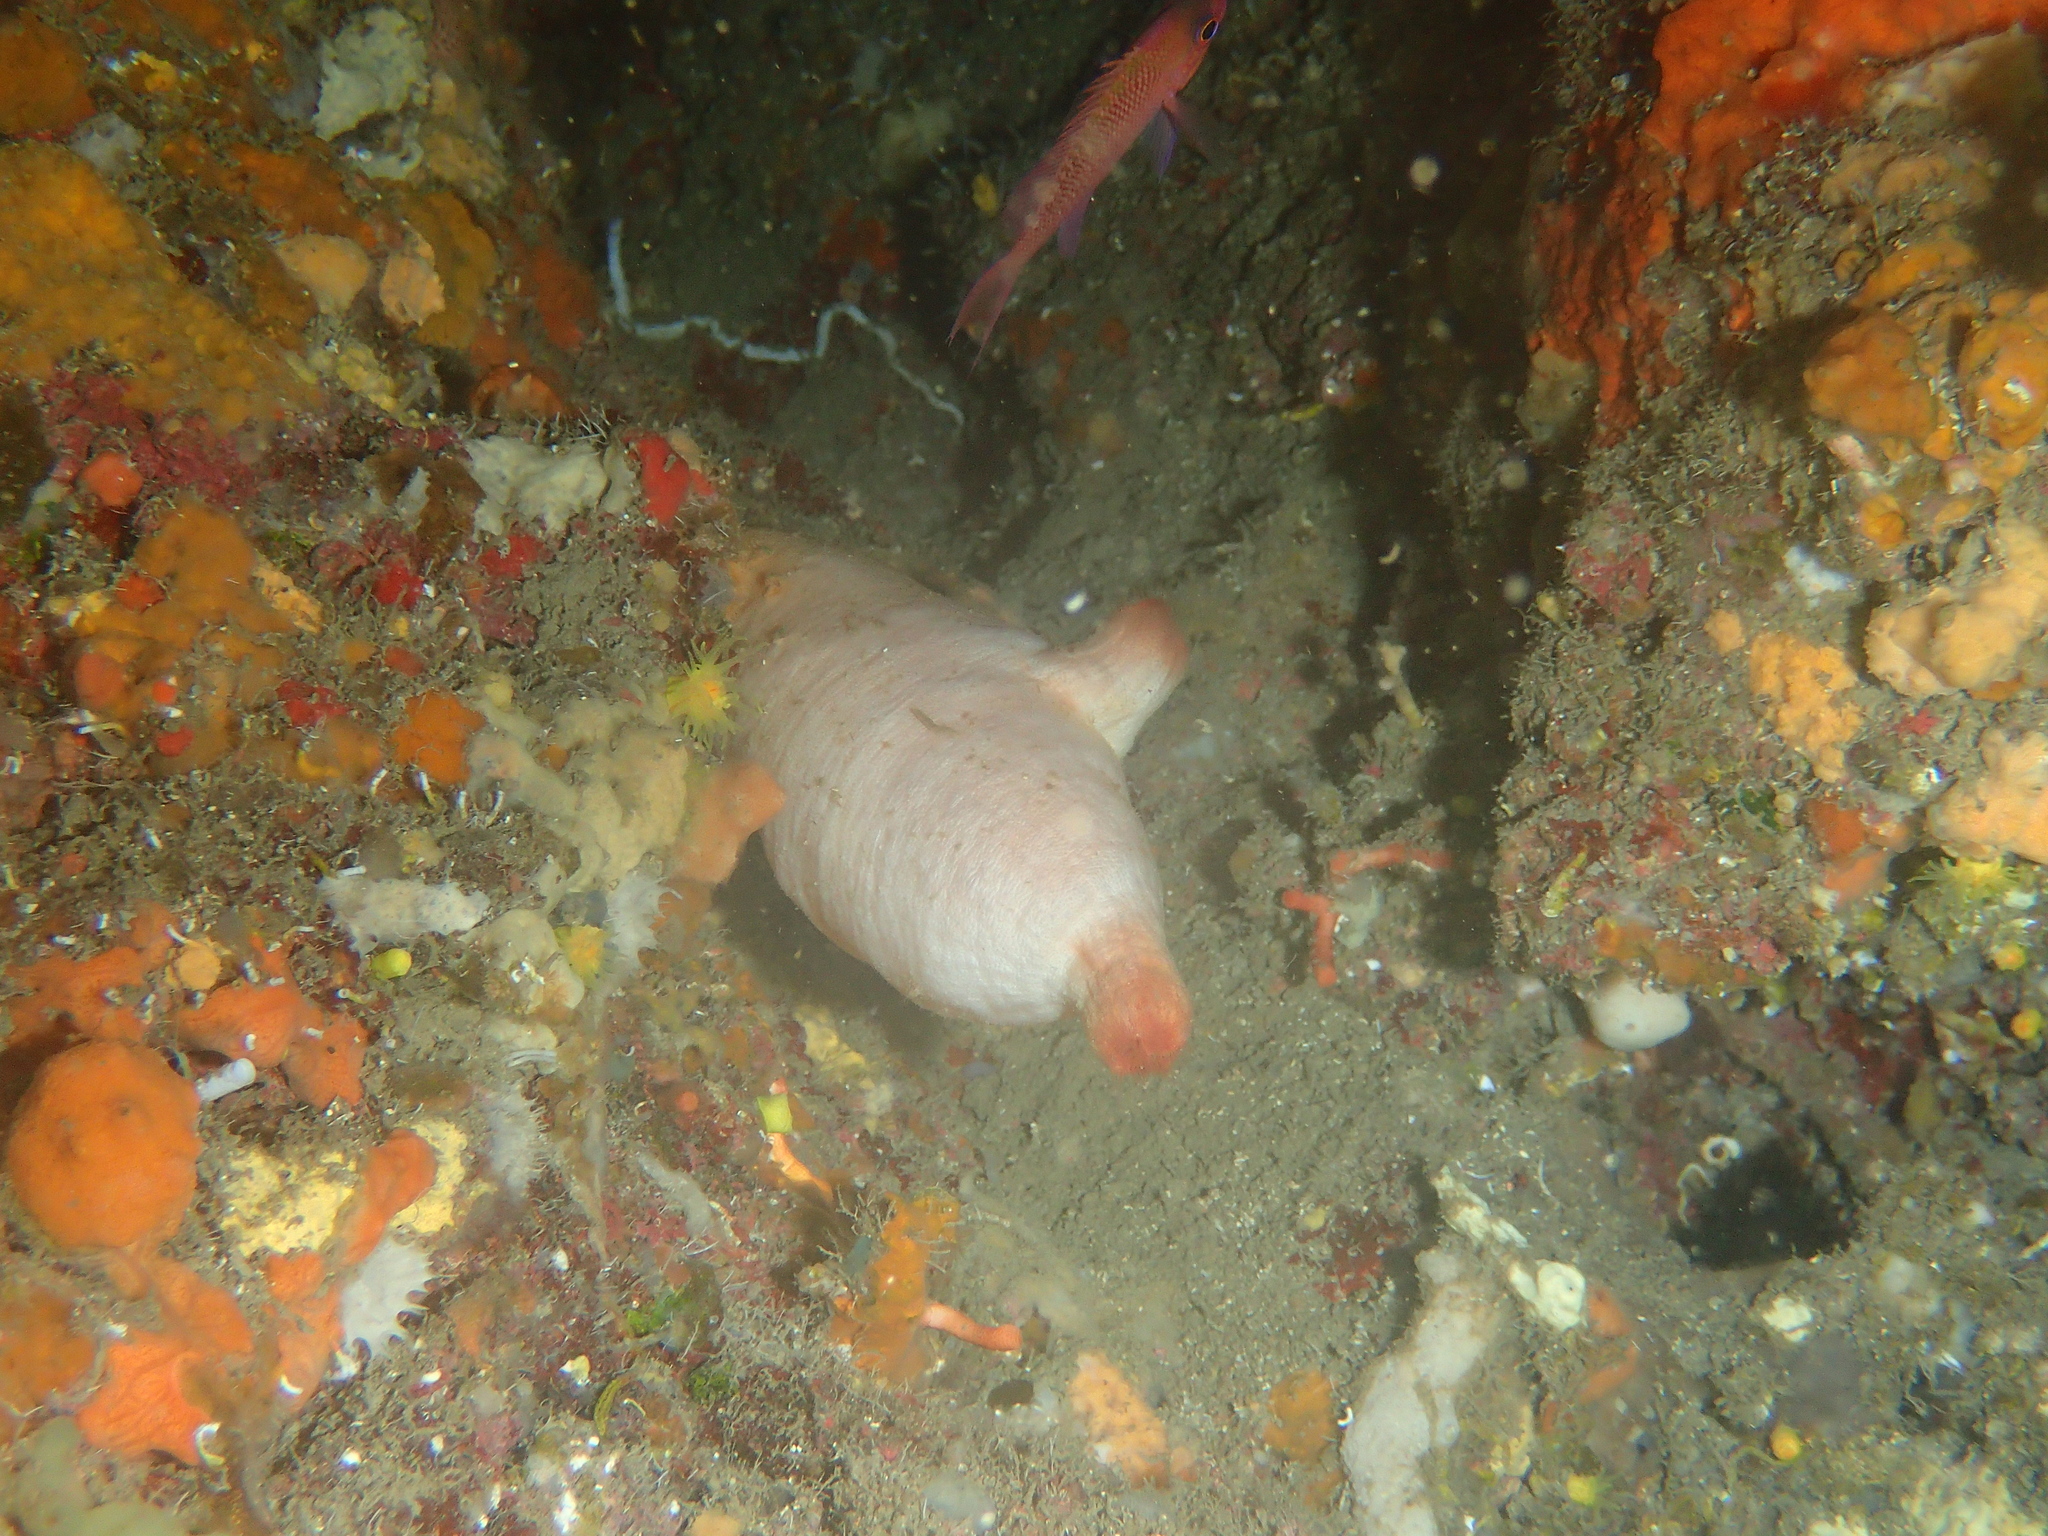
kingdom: Animalia
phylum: Chordata
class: Ascidiacea
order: Stolidobranchia
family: Pyuridae
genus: Halocynthia
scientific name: Halocynthia papillosa
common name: Red sea-squirt
